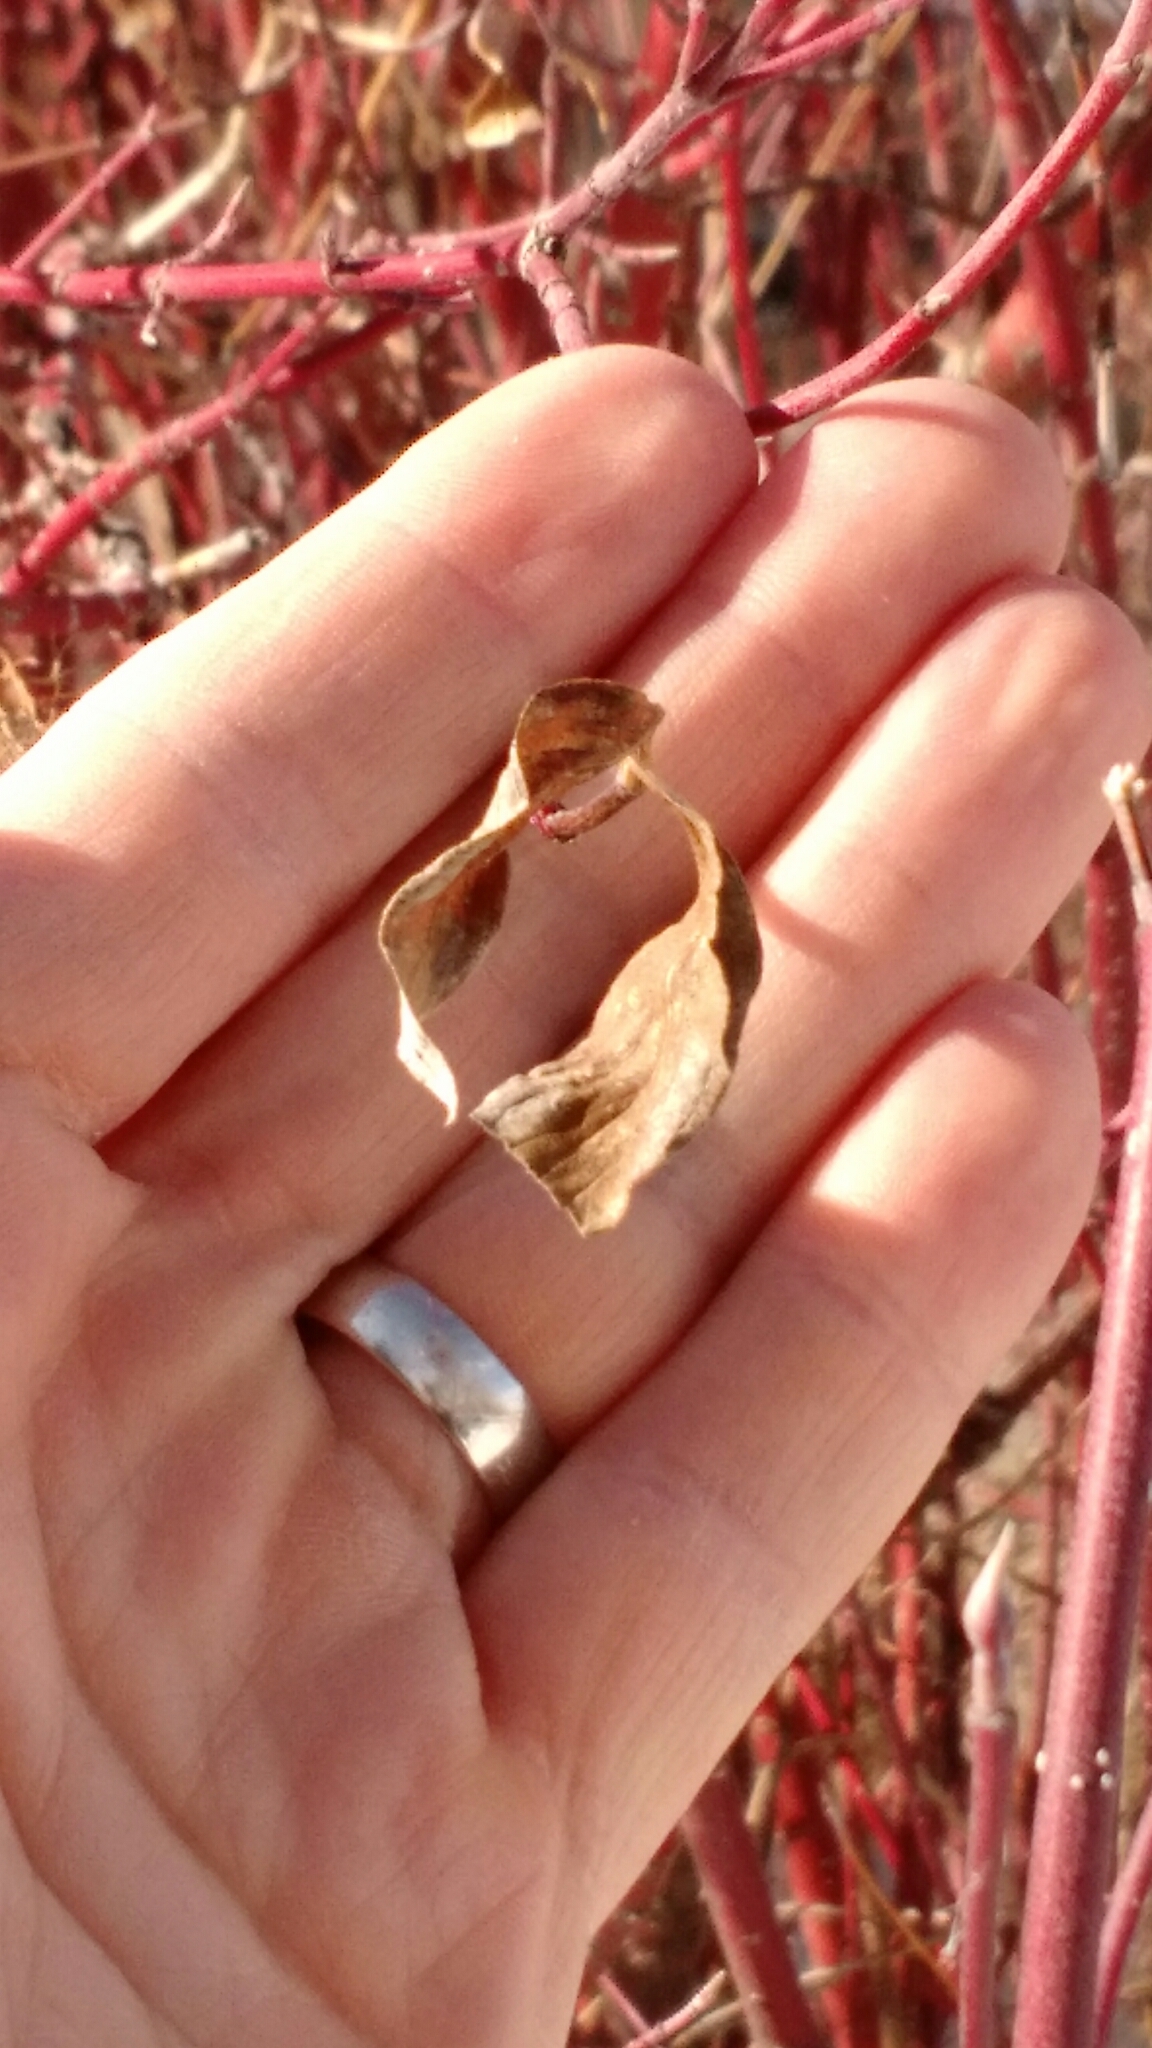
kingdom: Plantae
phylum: Tracheophyta
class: Magnoliopsida
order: Cornales
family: Cornaceae
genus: Cornus
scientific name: Cornus sericea
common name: Red-osier dogwood
